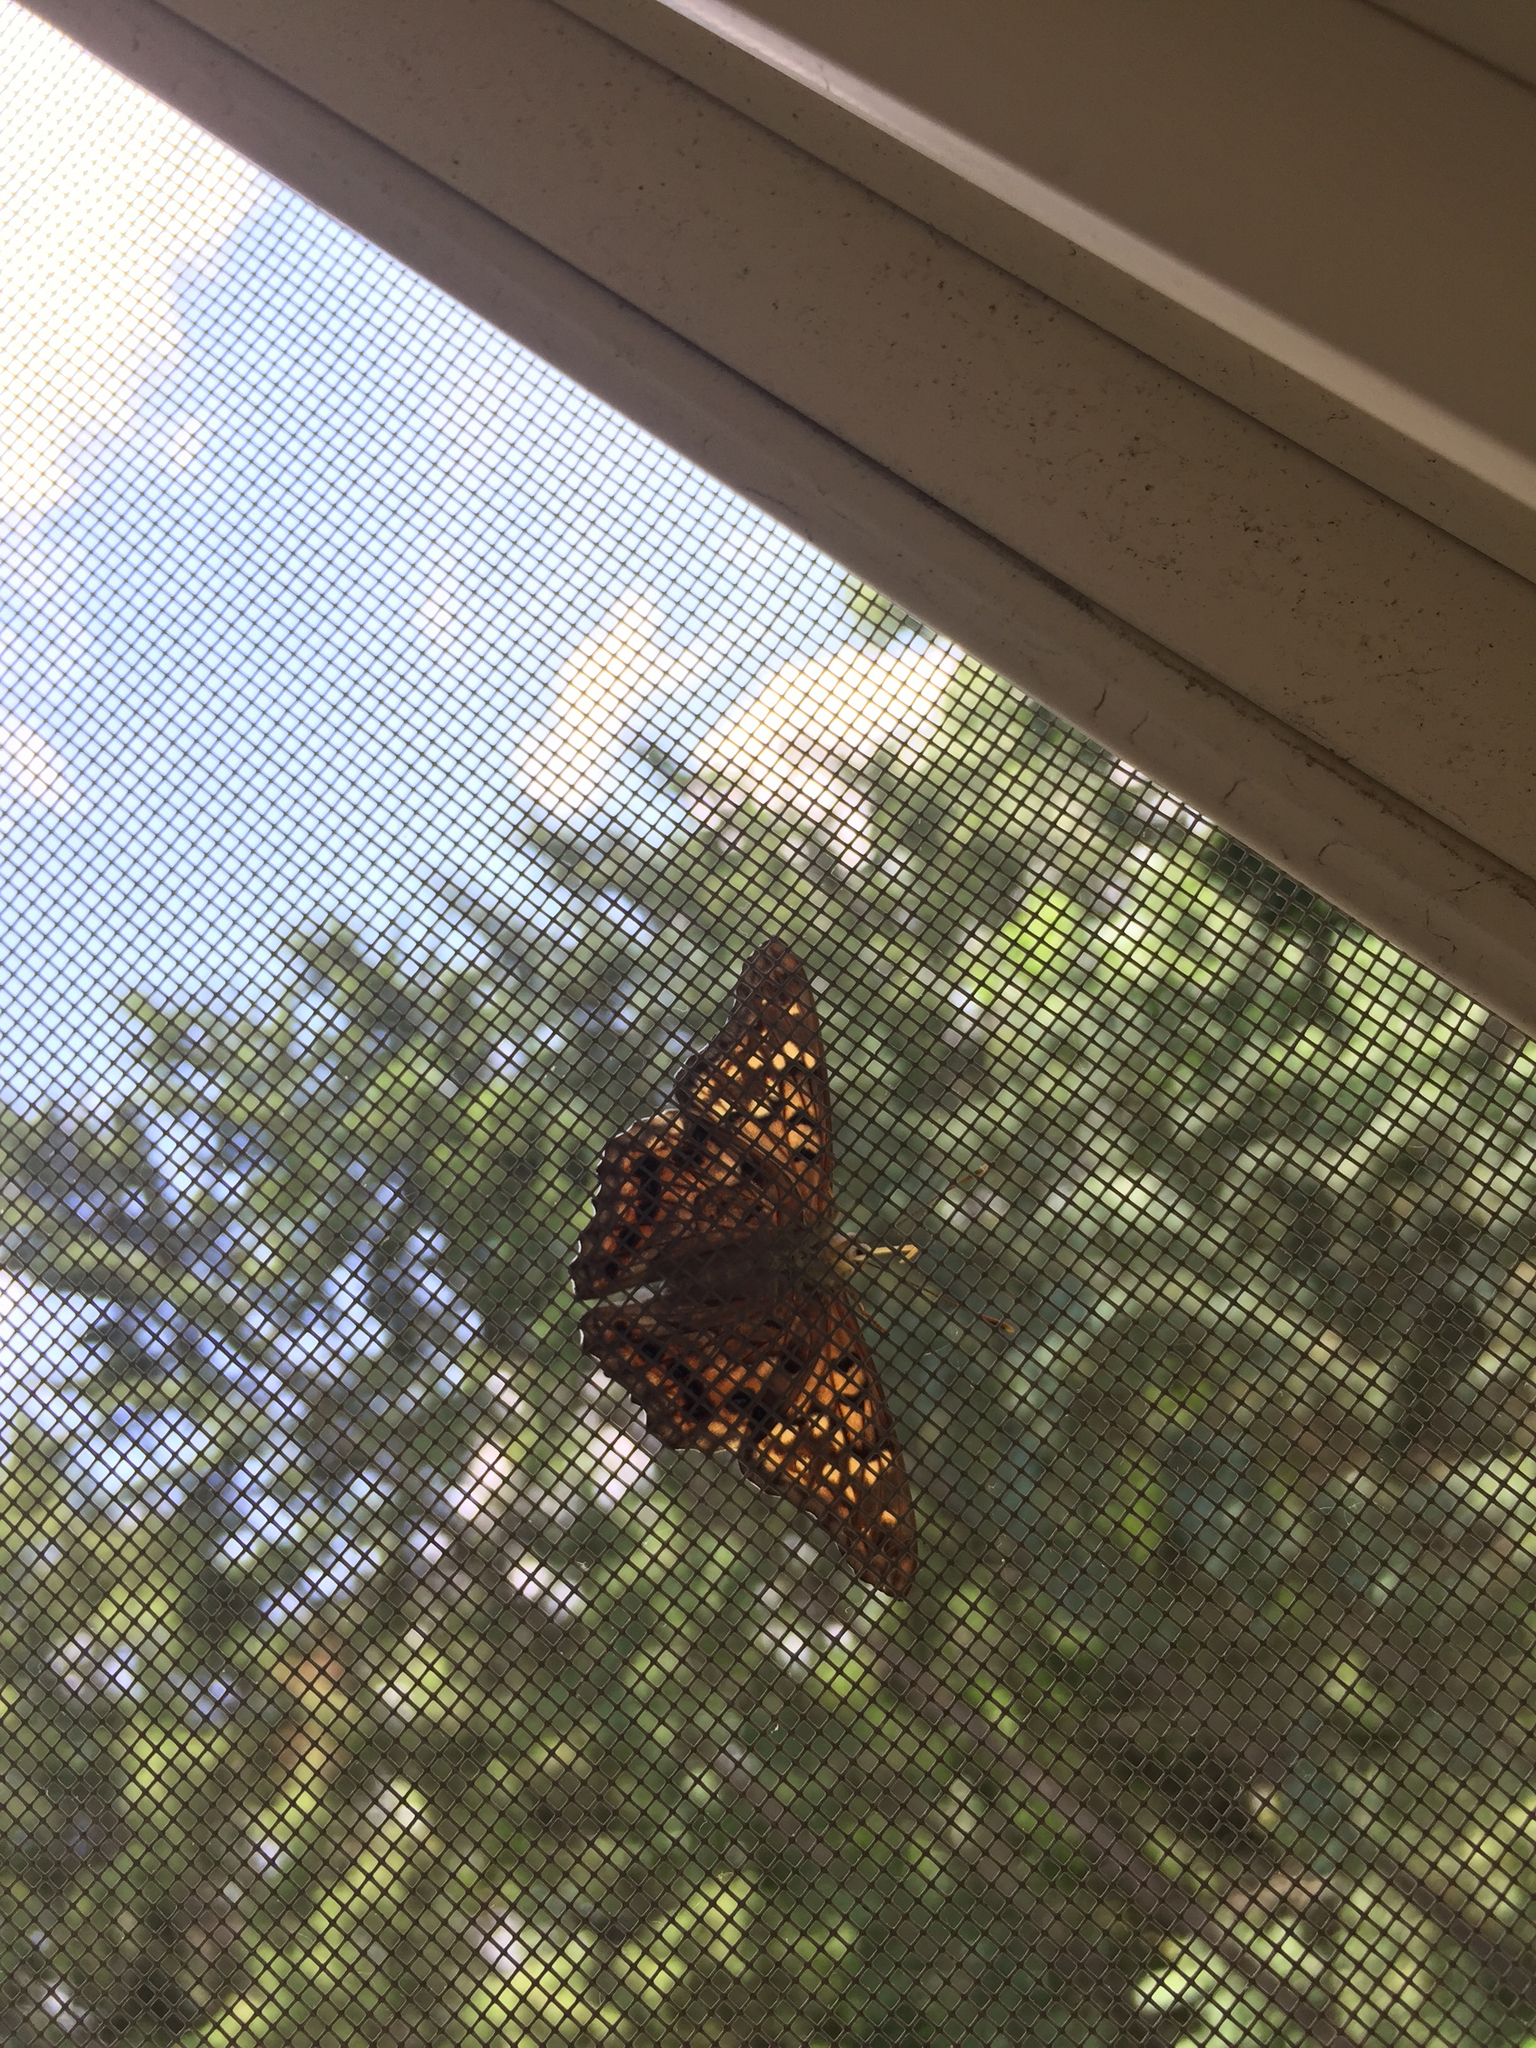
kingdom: Animalia
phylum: Arthropoda
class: Insecta
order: Lepidoptera
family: Nymphalidae
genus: Asterocampa
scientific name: Asterocampa clyton
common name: Tawny emperor
